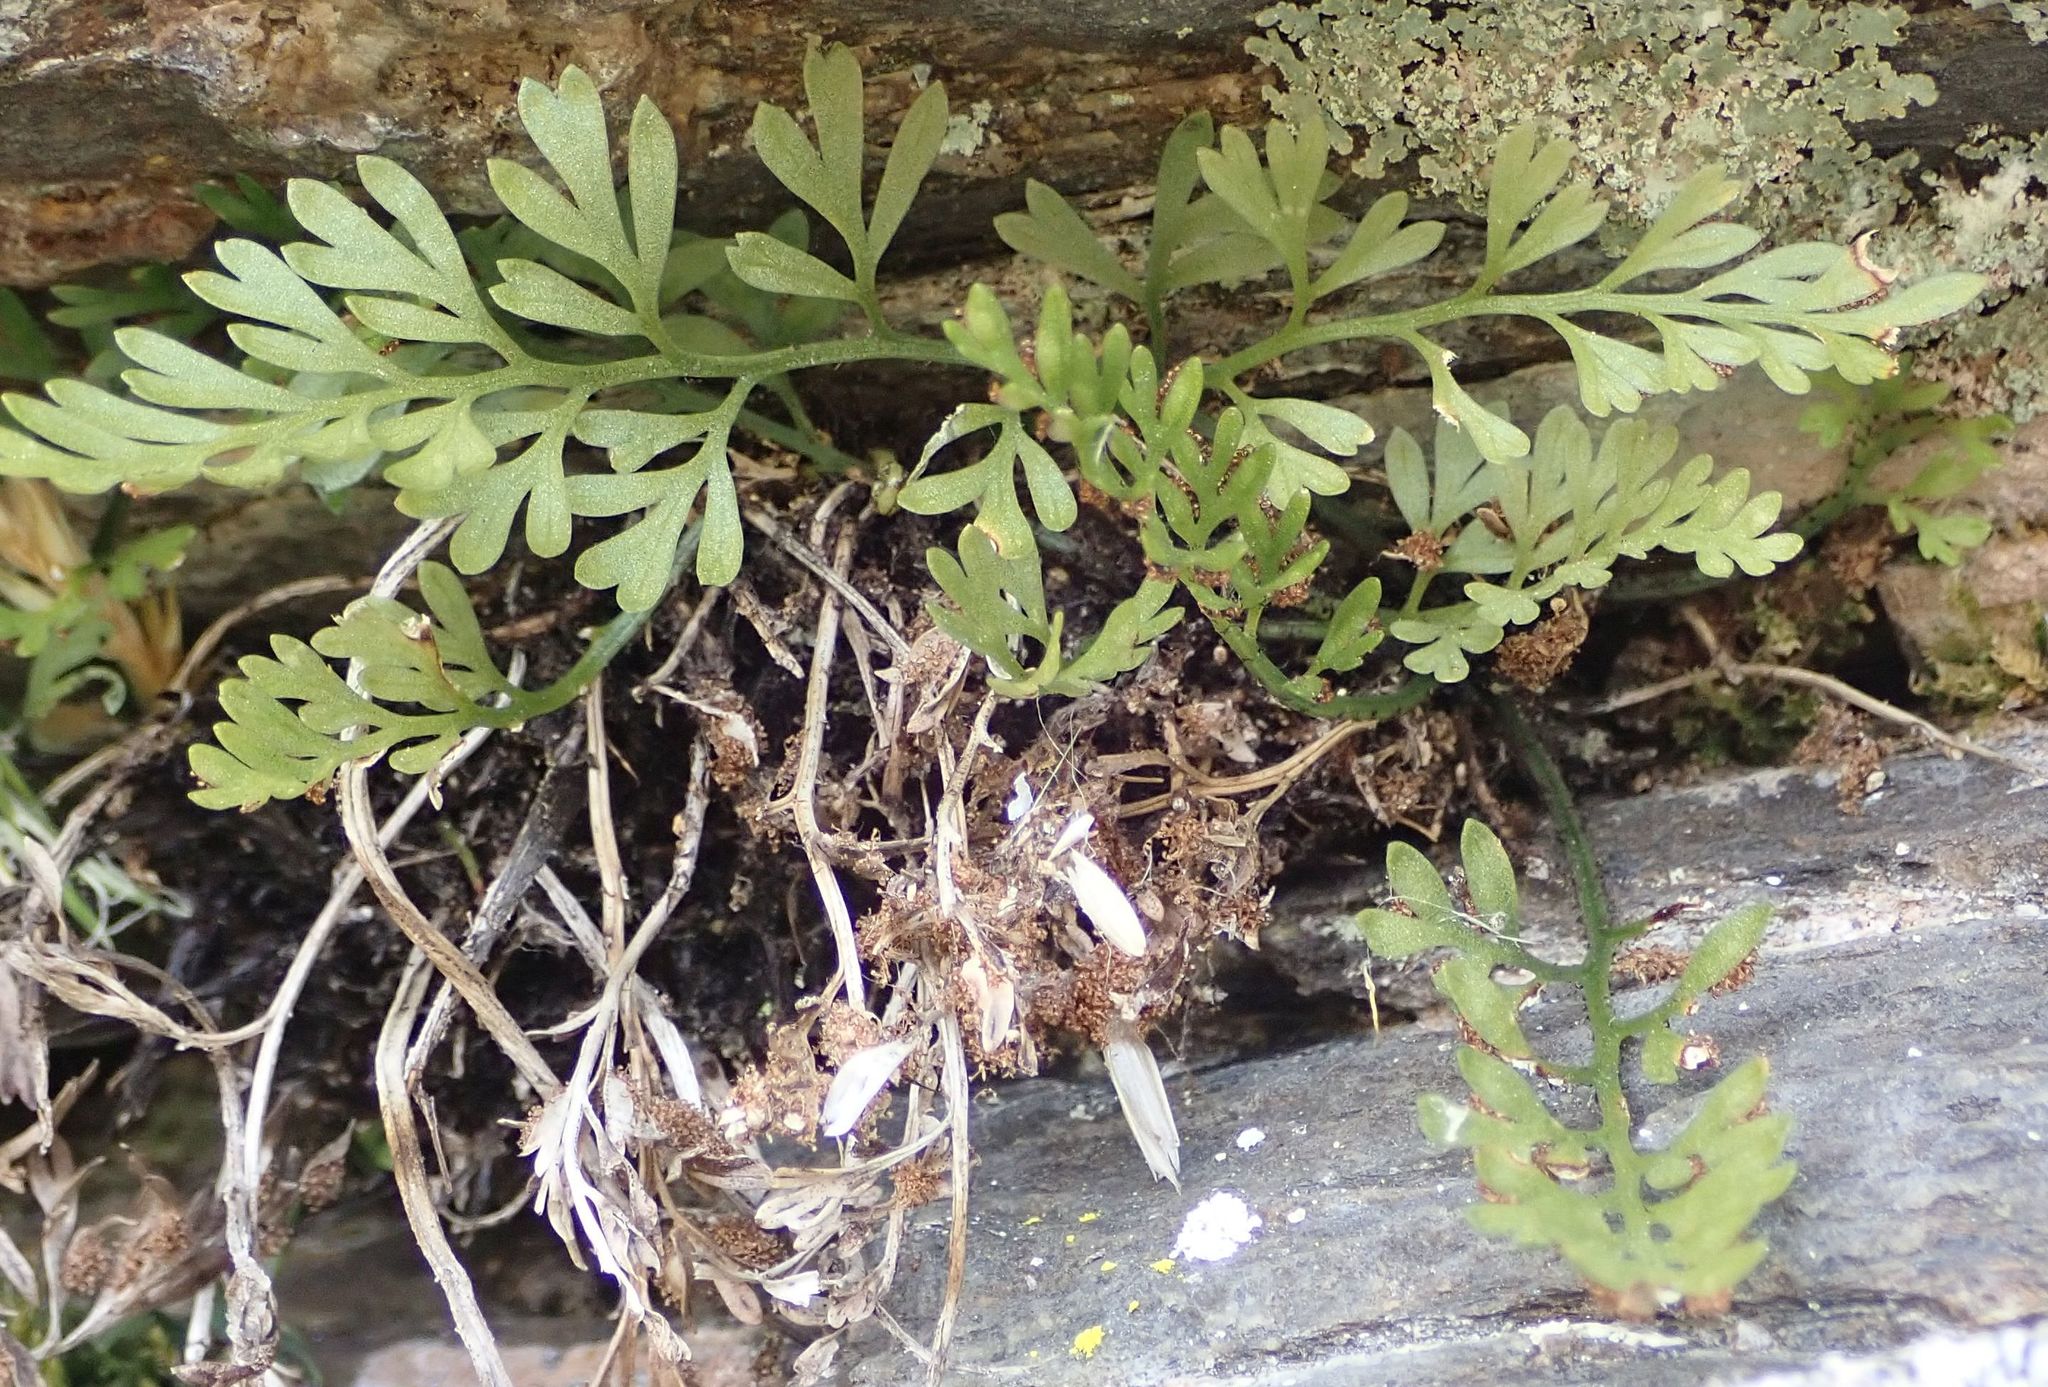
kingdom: Plantae
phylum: Tracheophyta
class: Polypodiopsida
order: Polypodiales
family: Aspleniaceae
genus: Asplenium
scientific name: Asplenium richardii
